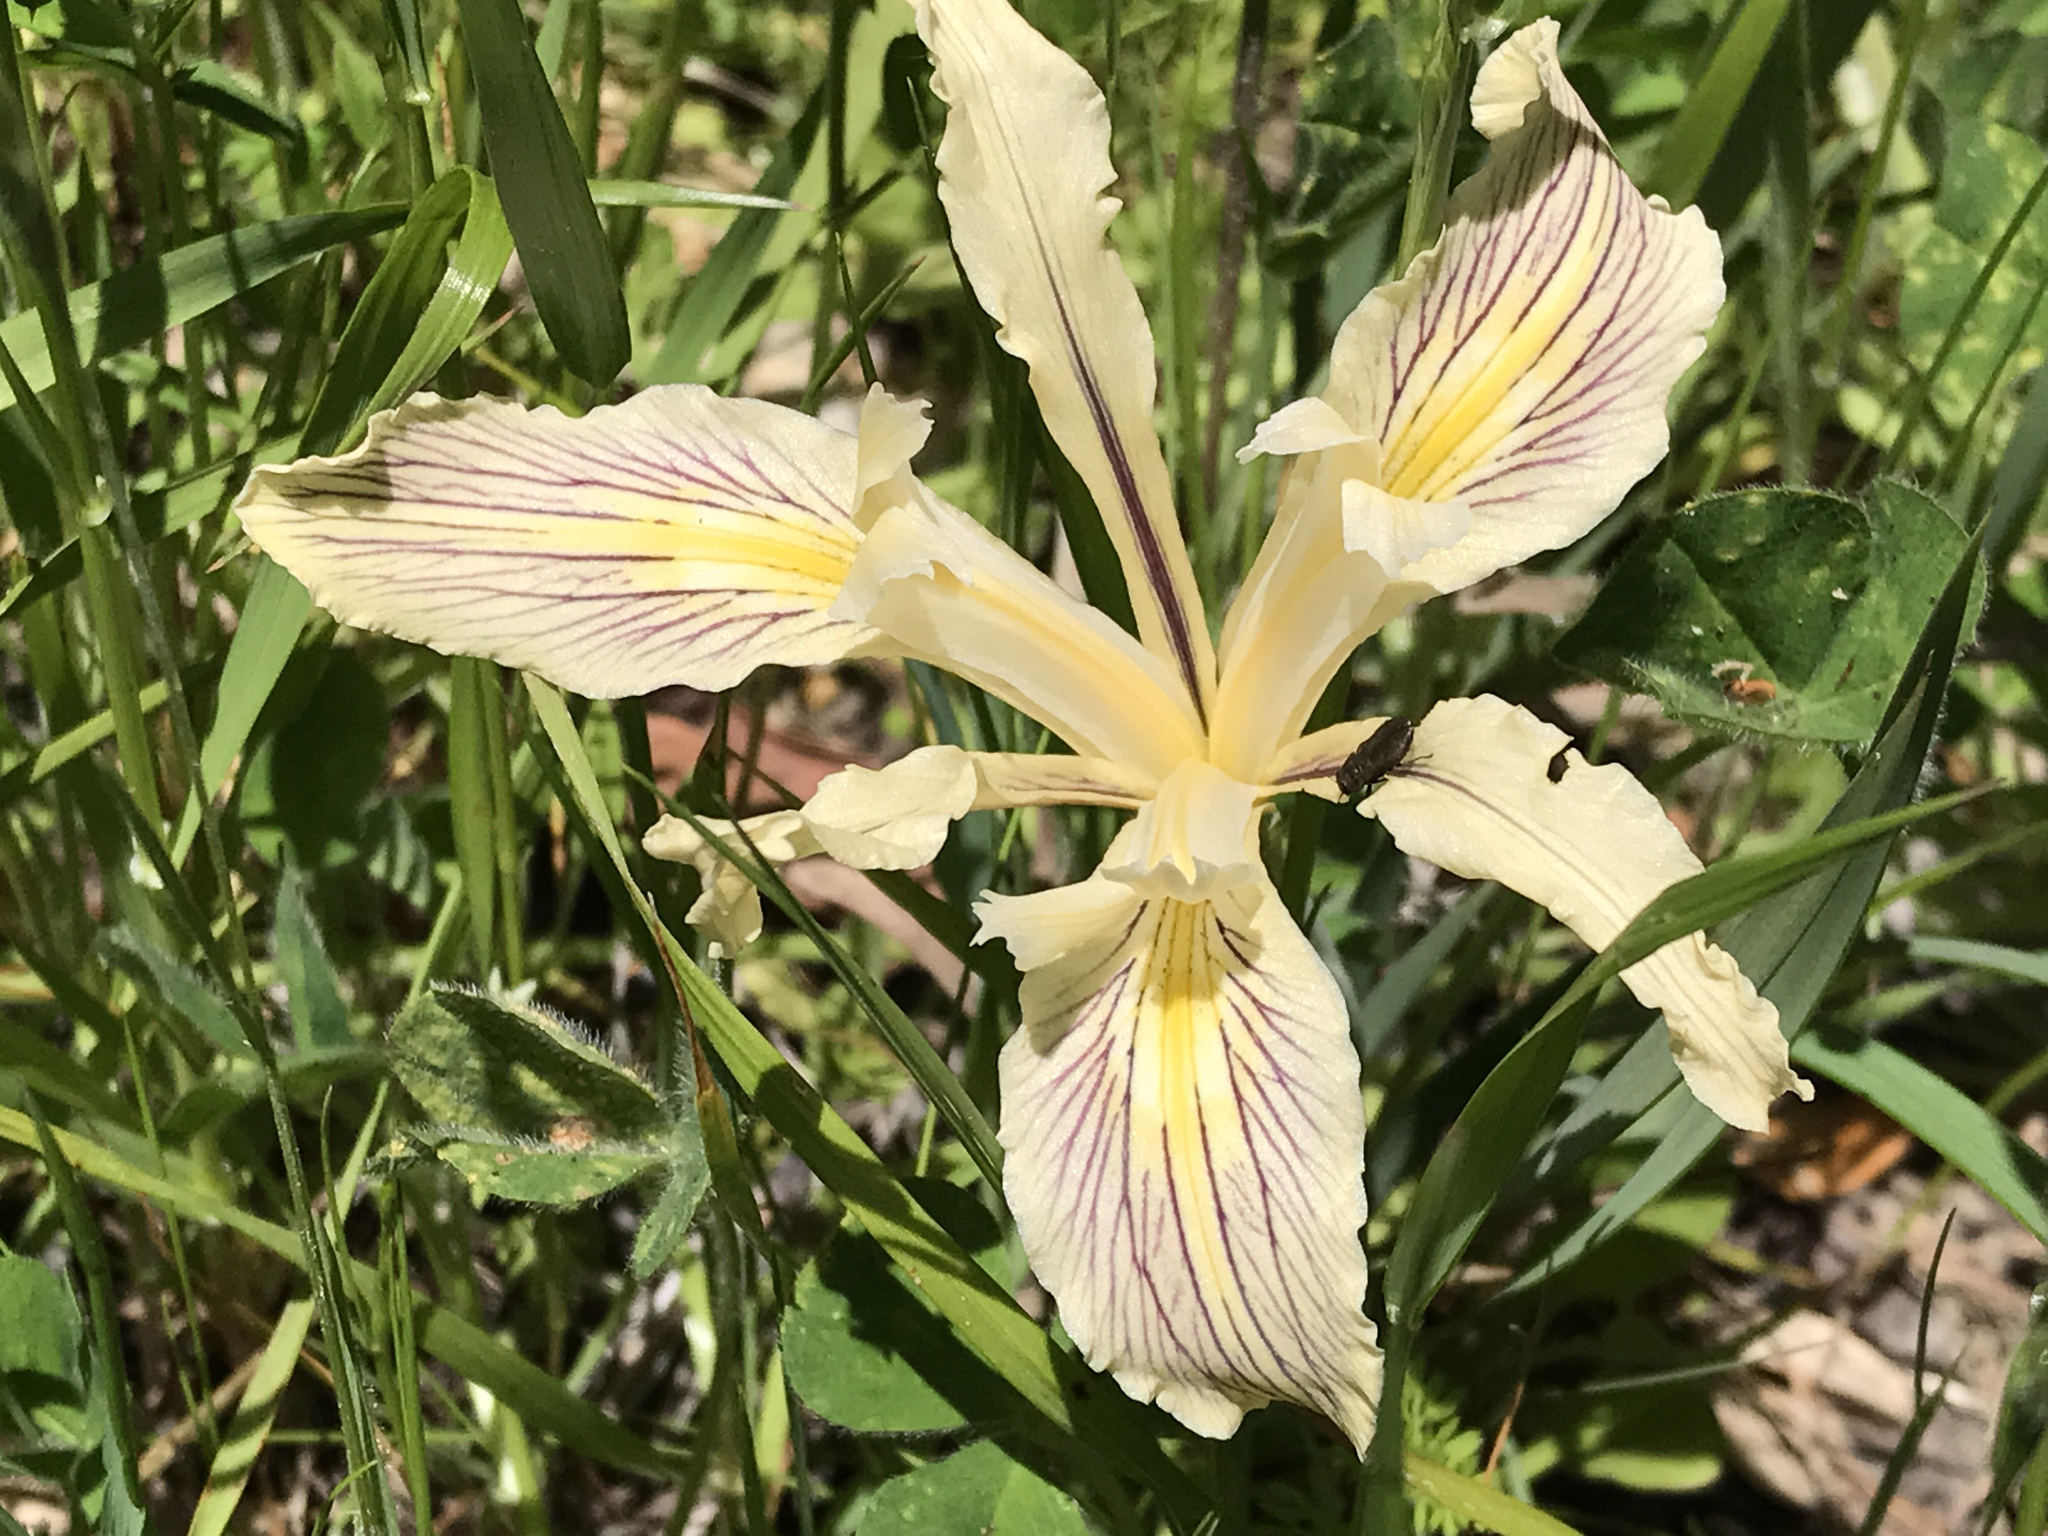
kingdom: Plantae
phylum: Tracheophyta
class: Liliopsida
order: Asparagales
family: Iridaceae
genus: Iris
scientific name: Iris fernaldii
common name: Fernald's iris
